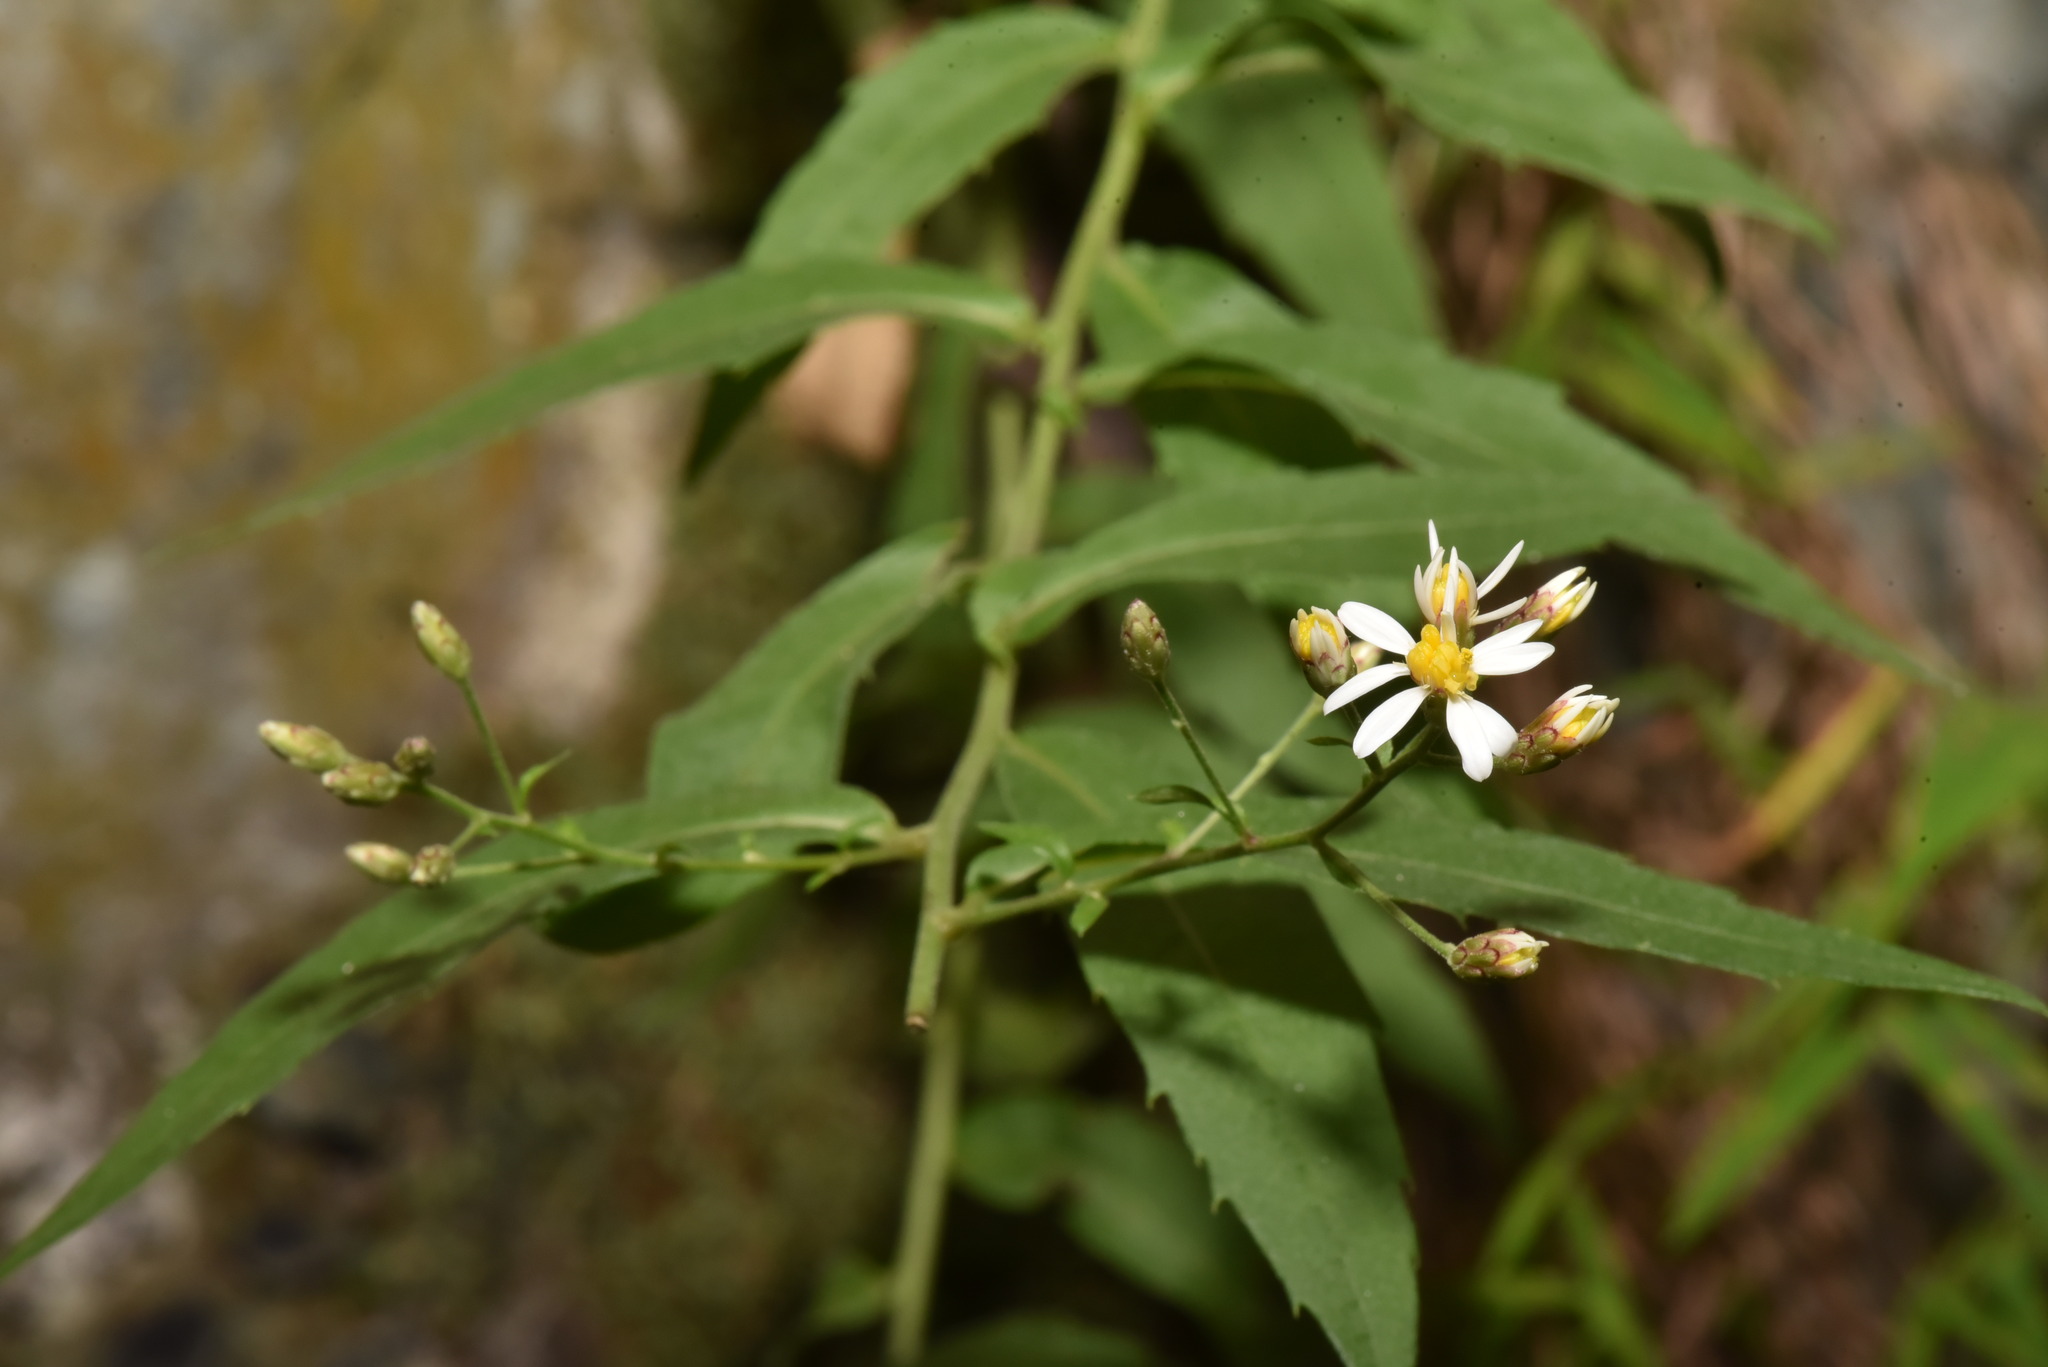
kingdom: Plantae
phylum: Tracheophyta
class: Magnoliopsida
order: Asterales
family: Asteraceae
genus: Aster
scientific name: Aster taiwanensis
